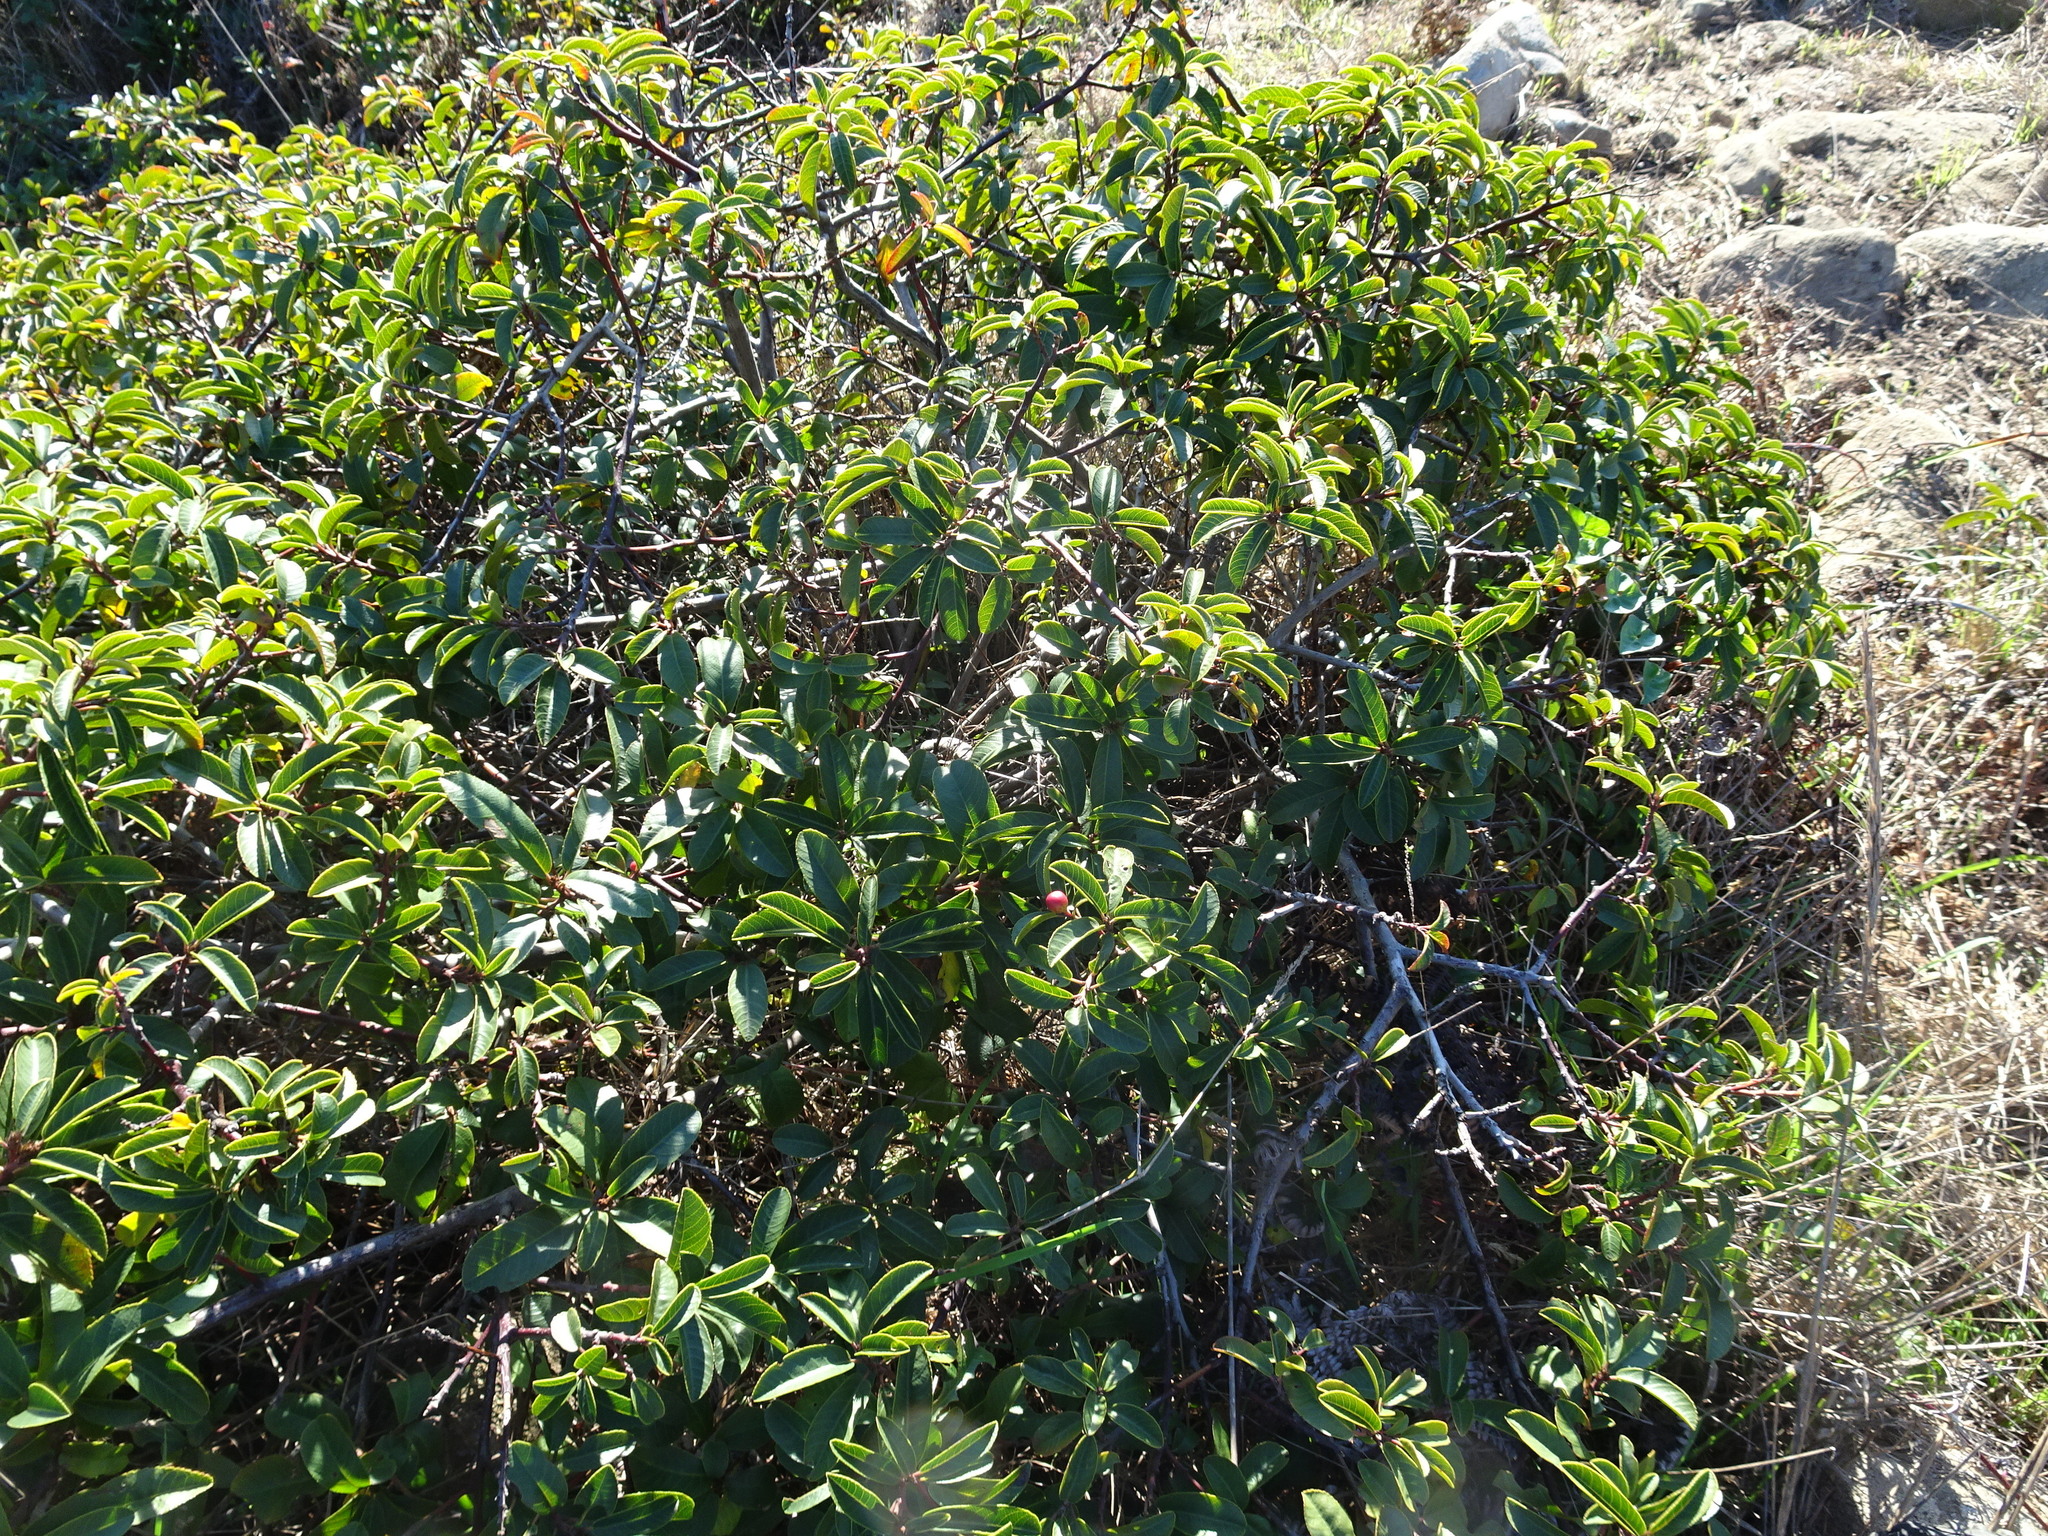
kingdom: Plantae
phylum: Tracheophyta
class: Magnoliopsida
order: Rosales
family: Rhamnaceae
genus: Frangula
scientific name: Frangula californica
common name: California buckthorn
